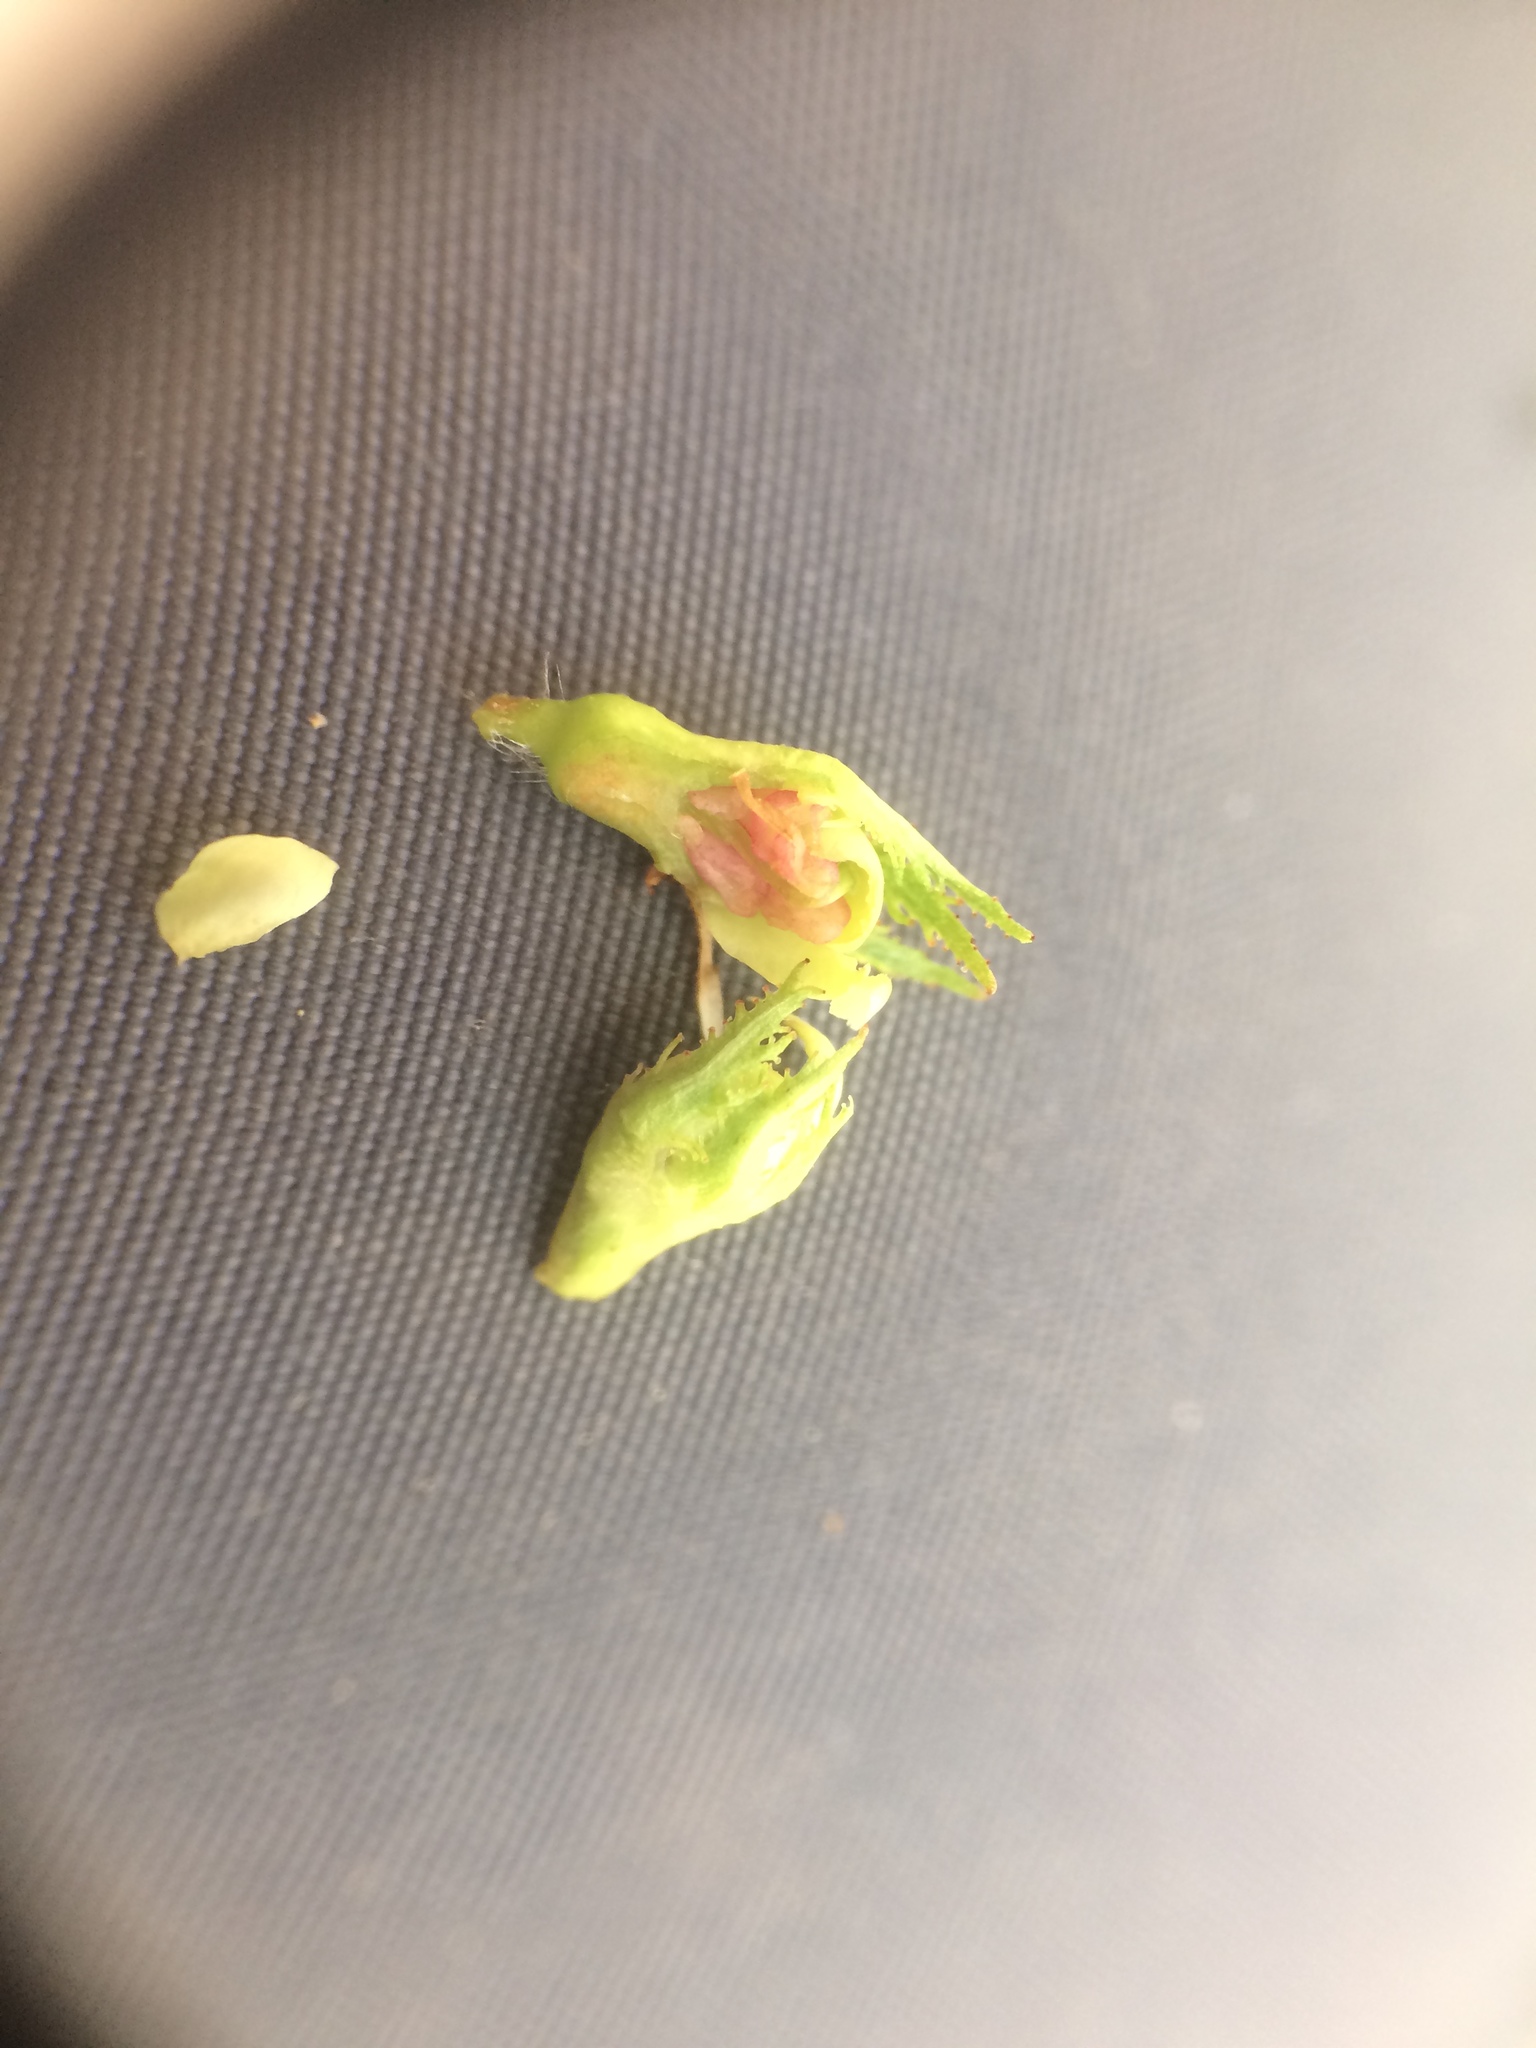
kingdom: Plantae
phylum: Tracheophyta
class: Magnoliopsida
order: Rosales
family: Rosaceae
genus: Crataegus
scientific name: Crataegus macracantha
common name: Large-thorn hawthorn
